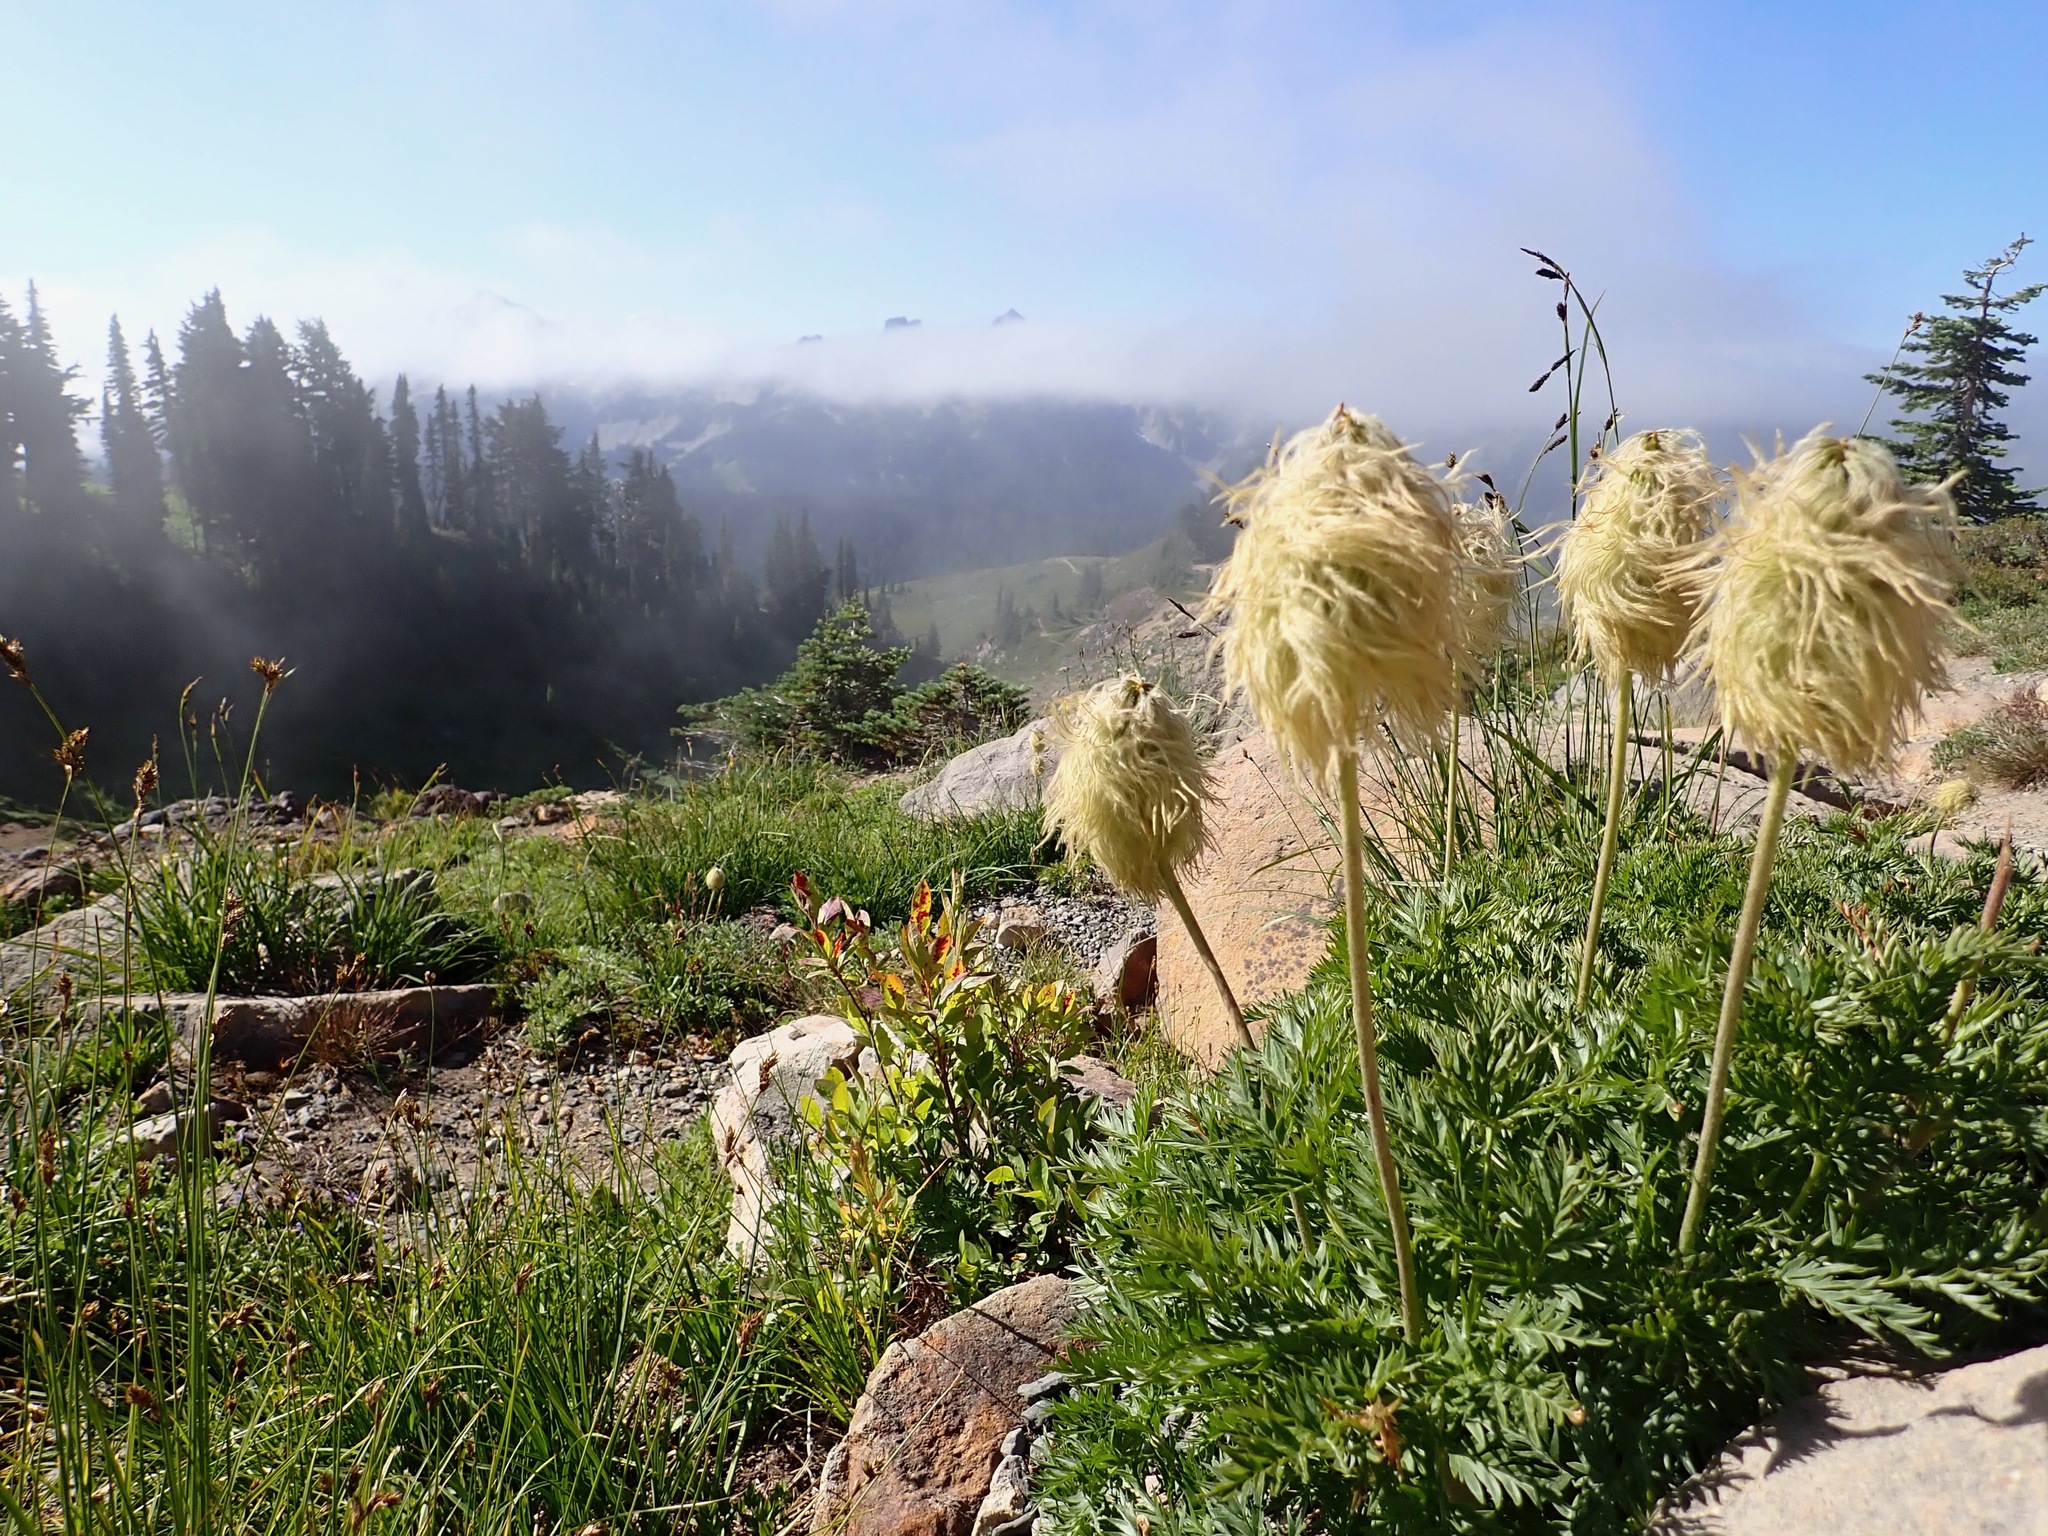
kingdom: Plantae
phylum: Tracheophyta
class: Magnoliopsida
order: Ranunculales
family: Ranunculaceae
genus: Pulsatilla
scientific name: Pulsatilla occidentalis
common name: Mountain pasqueflower
